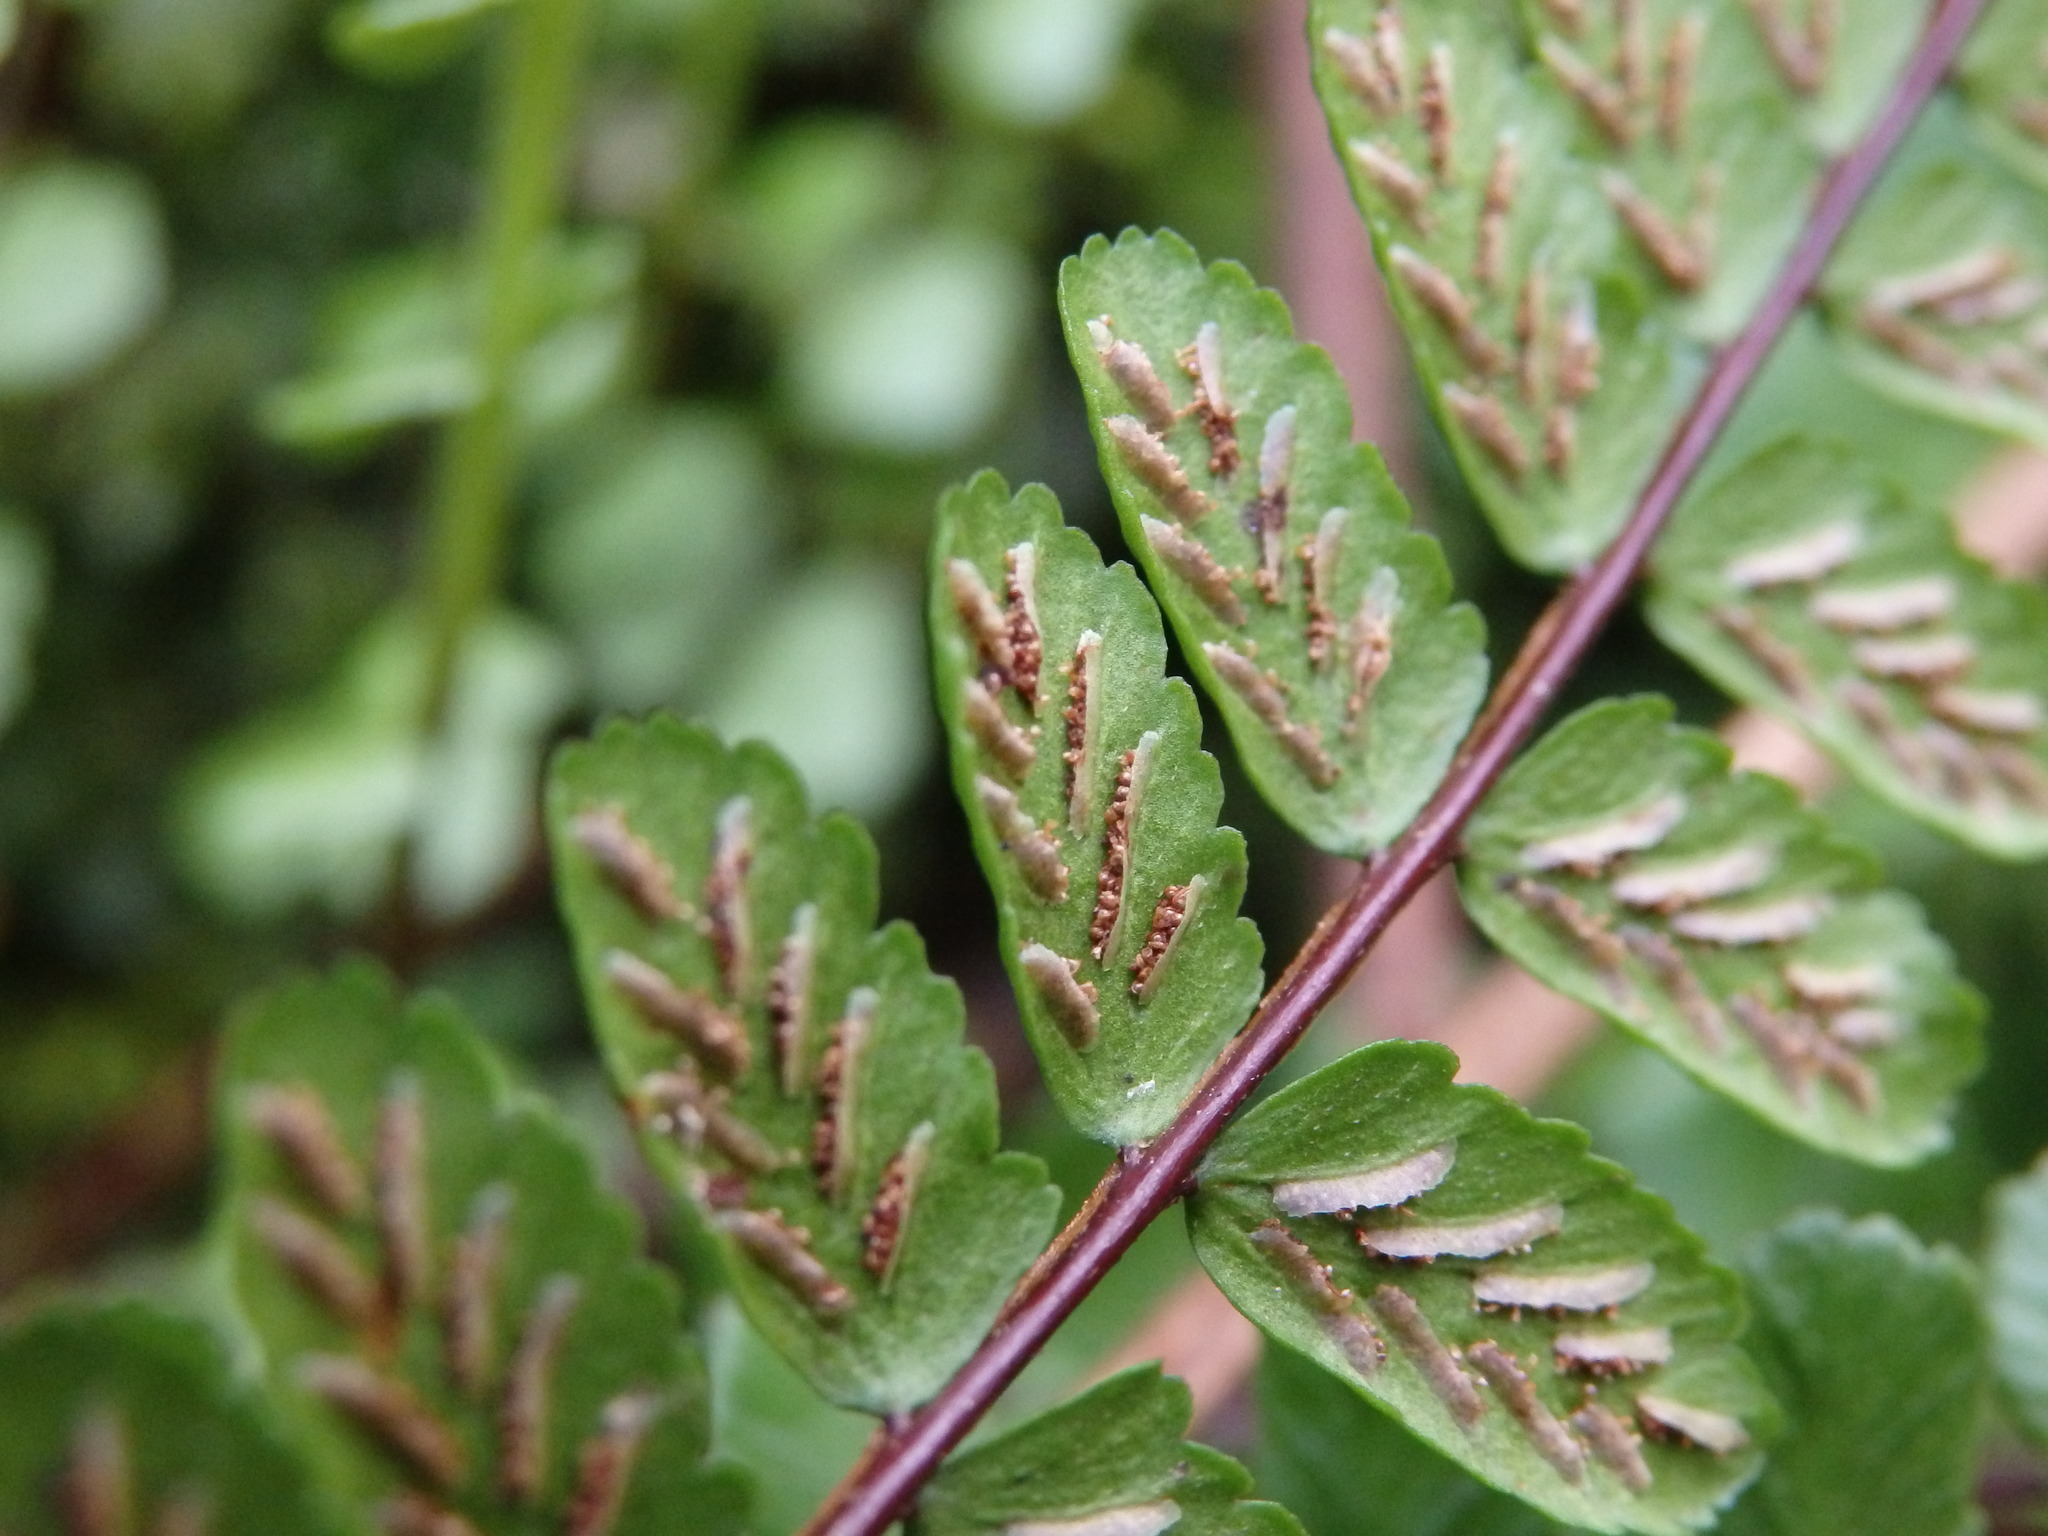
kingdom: Plantae
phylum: Tracheophyta
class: Polypodiopsida
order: Polypodiales
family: Aspleniaceae
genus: Asplenium
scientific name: Asplenium trichomanes
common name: Maidenhair spleenwort
